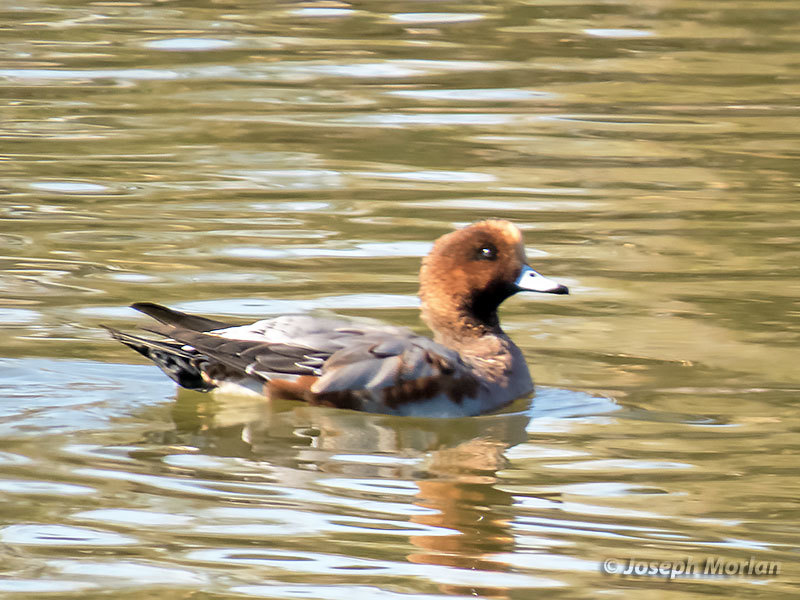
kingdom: Animalia
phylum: Chordata
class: Aves
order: Anseriformes
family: Anatidae
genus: Mareca
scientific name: Mareca penelope
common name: Eurasian wigeon
